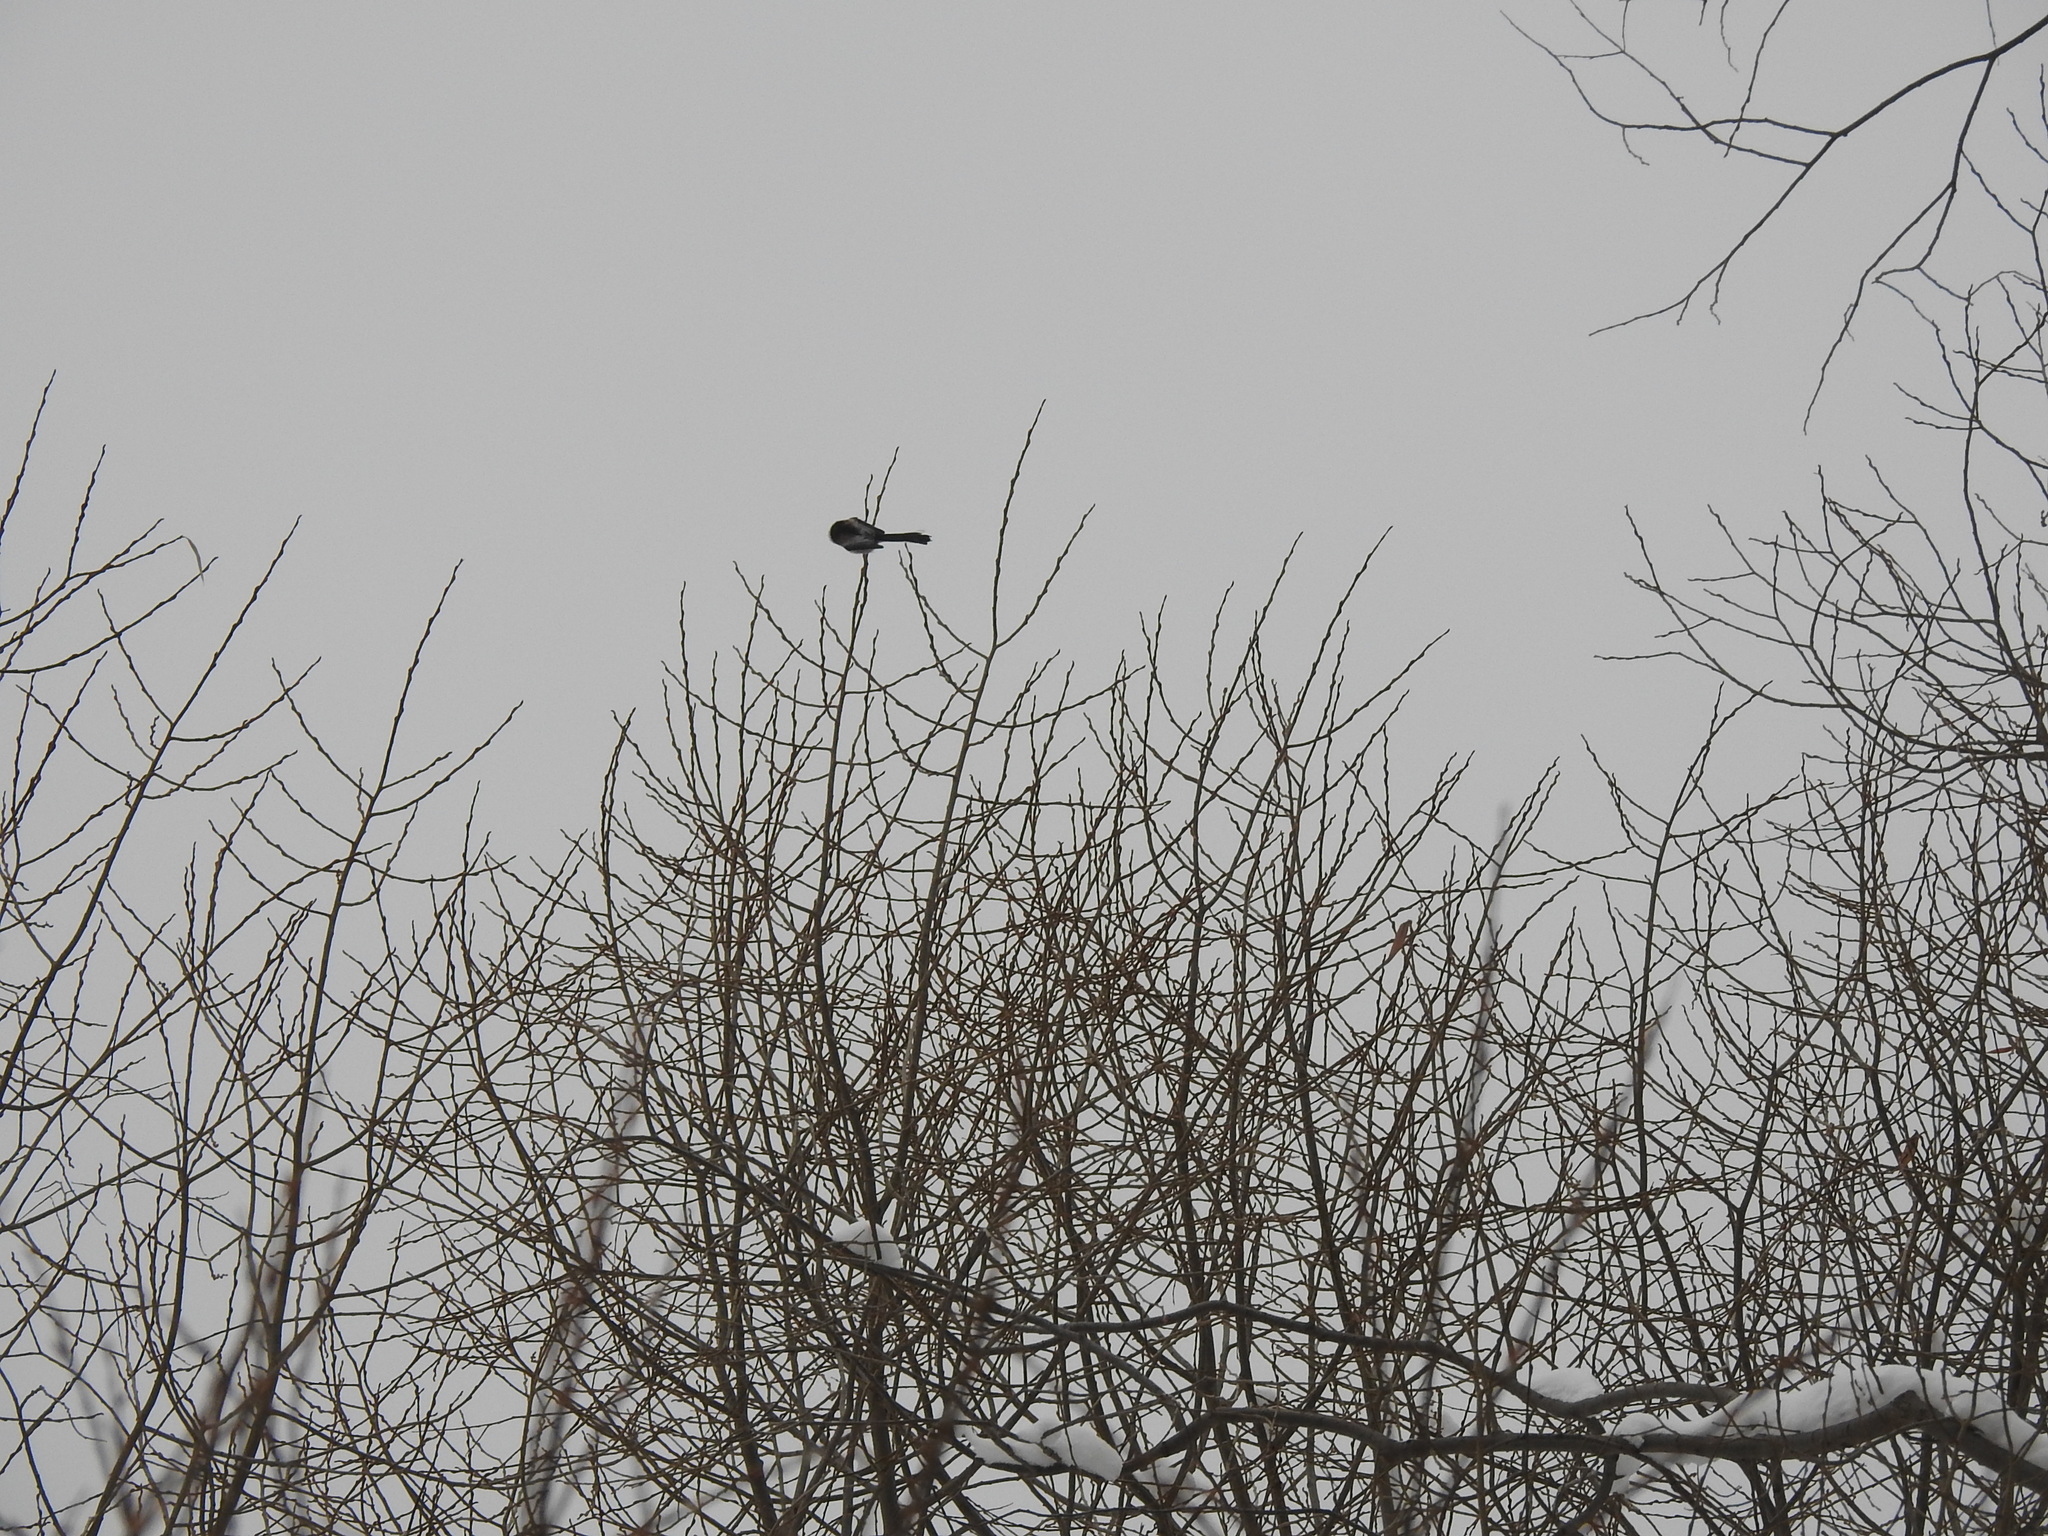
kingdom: Animalia
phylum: Chordata
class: Aves
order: Passeriformes
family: Aegithalidae
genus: Aegithalos
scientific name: Aegithalos caudatus
